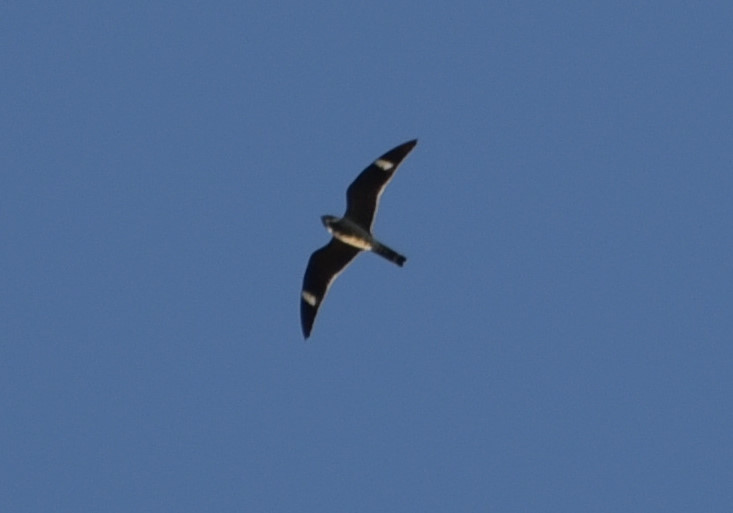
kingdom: Animalia
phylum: Chordata
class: Aves
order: Caprimulgiformes
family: Caprimulgidae
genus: Chordeiles
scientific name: Chordeiles minor
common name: Common nighthawk
